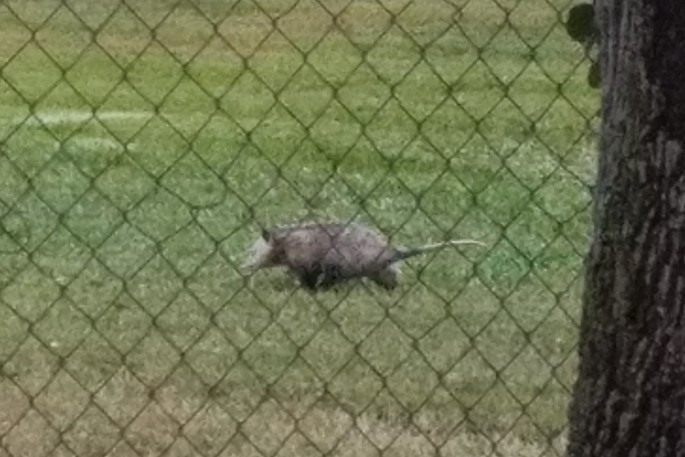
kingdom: Animalia
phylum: Chordata
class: Mammalia
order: Didelphimorphia
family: Didelphidae
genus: Didelphis
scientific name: Didelphis virginiana
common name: Virginia opossum
